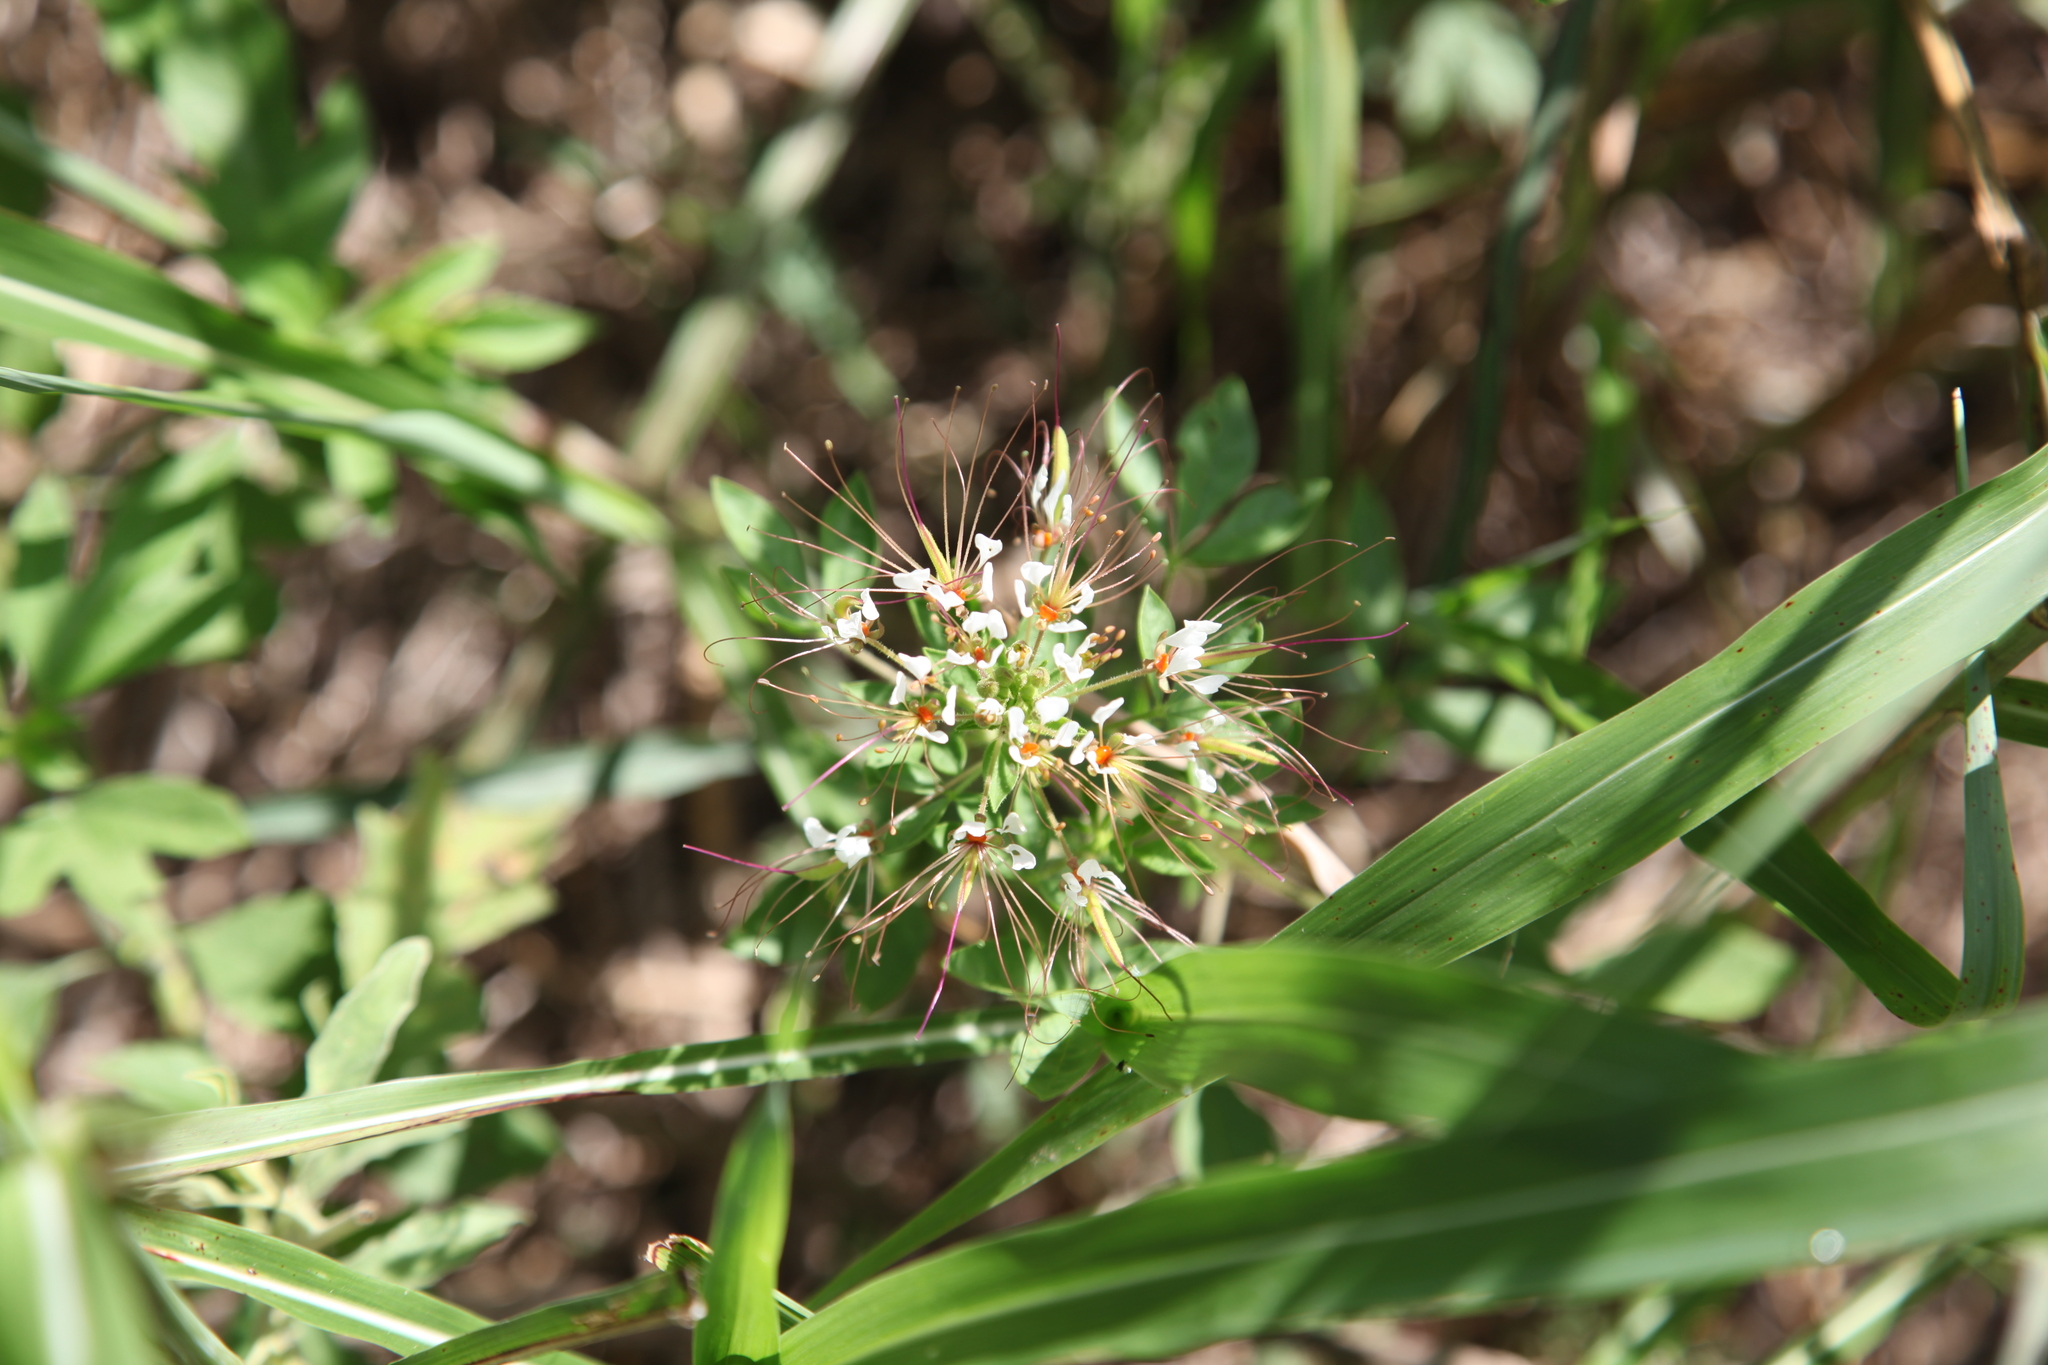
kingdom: Plantae
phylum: Tracheophyta
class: Magnoliopsida
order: Brassicales
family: Cleomaceae
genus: Polanisia
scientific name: Polanisia dodecandra
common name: Clammyweed
